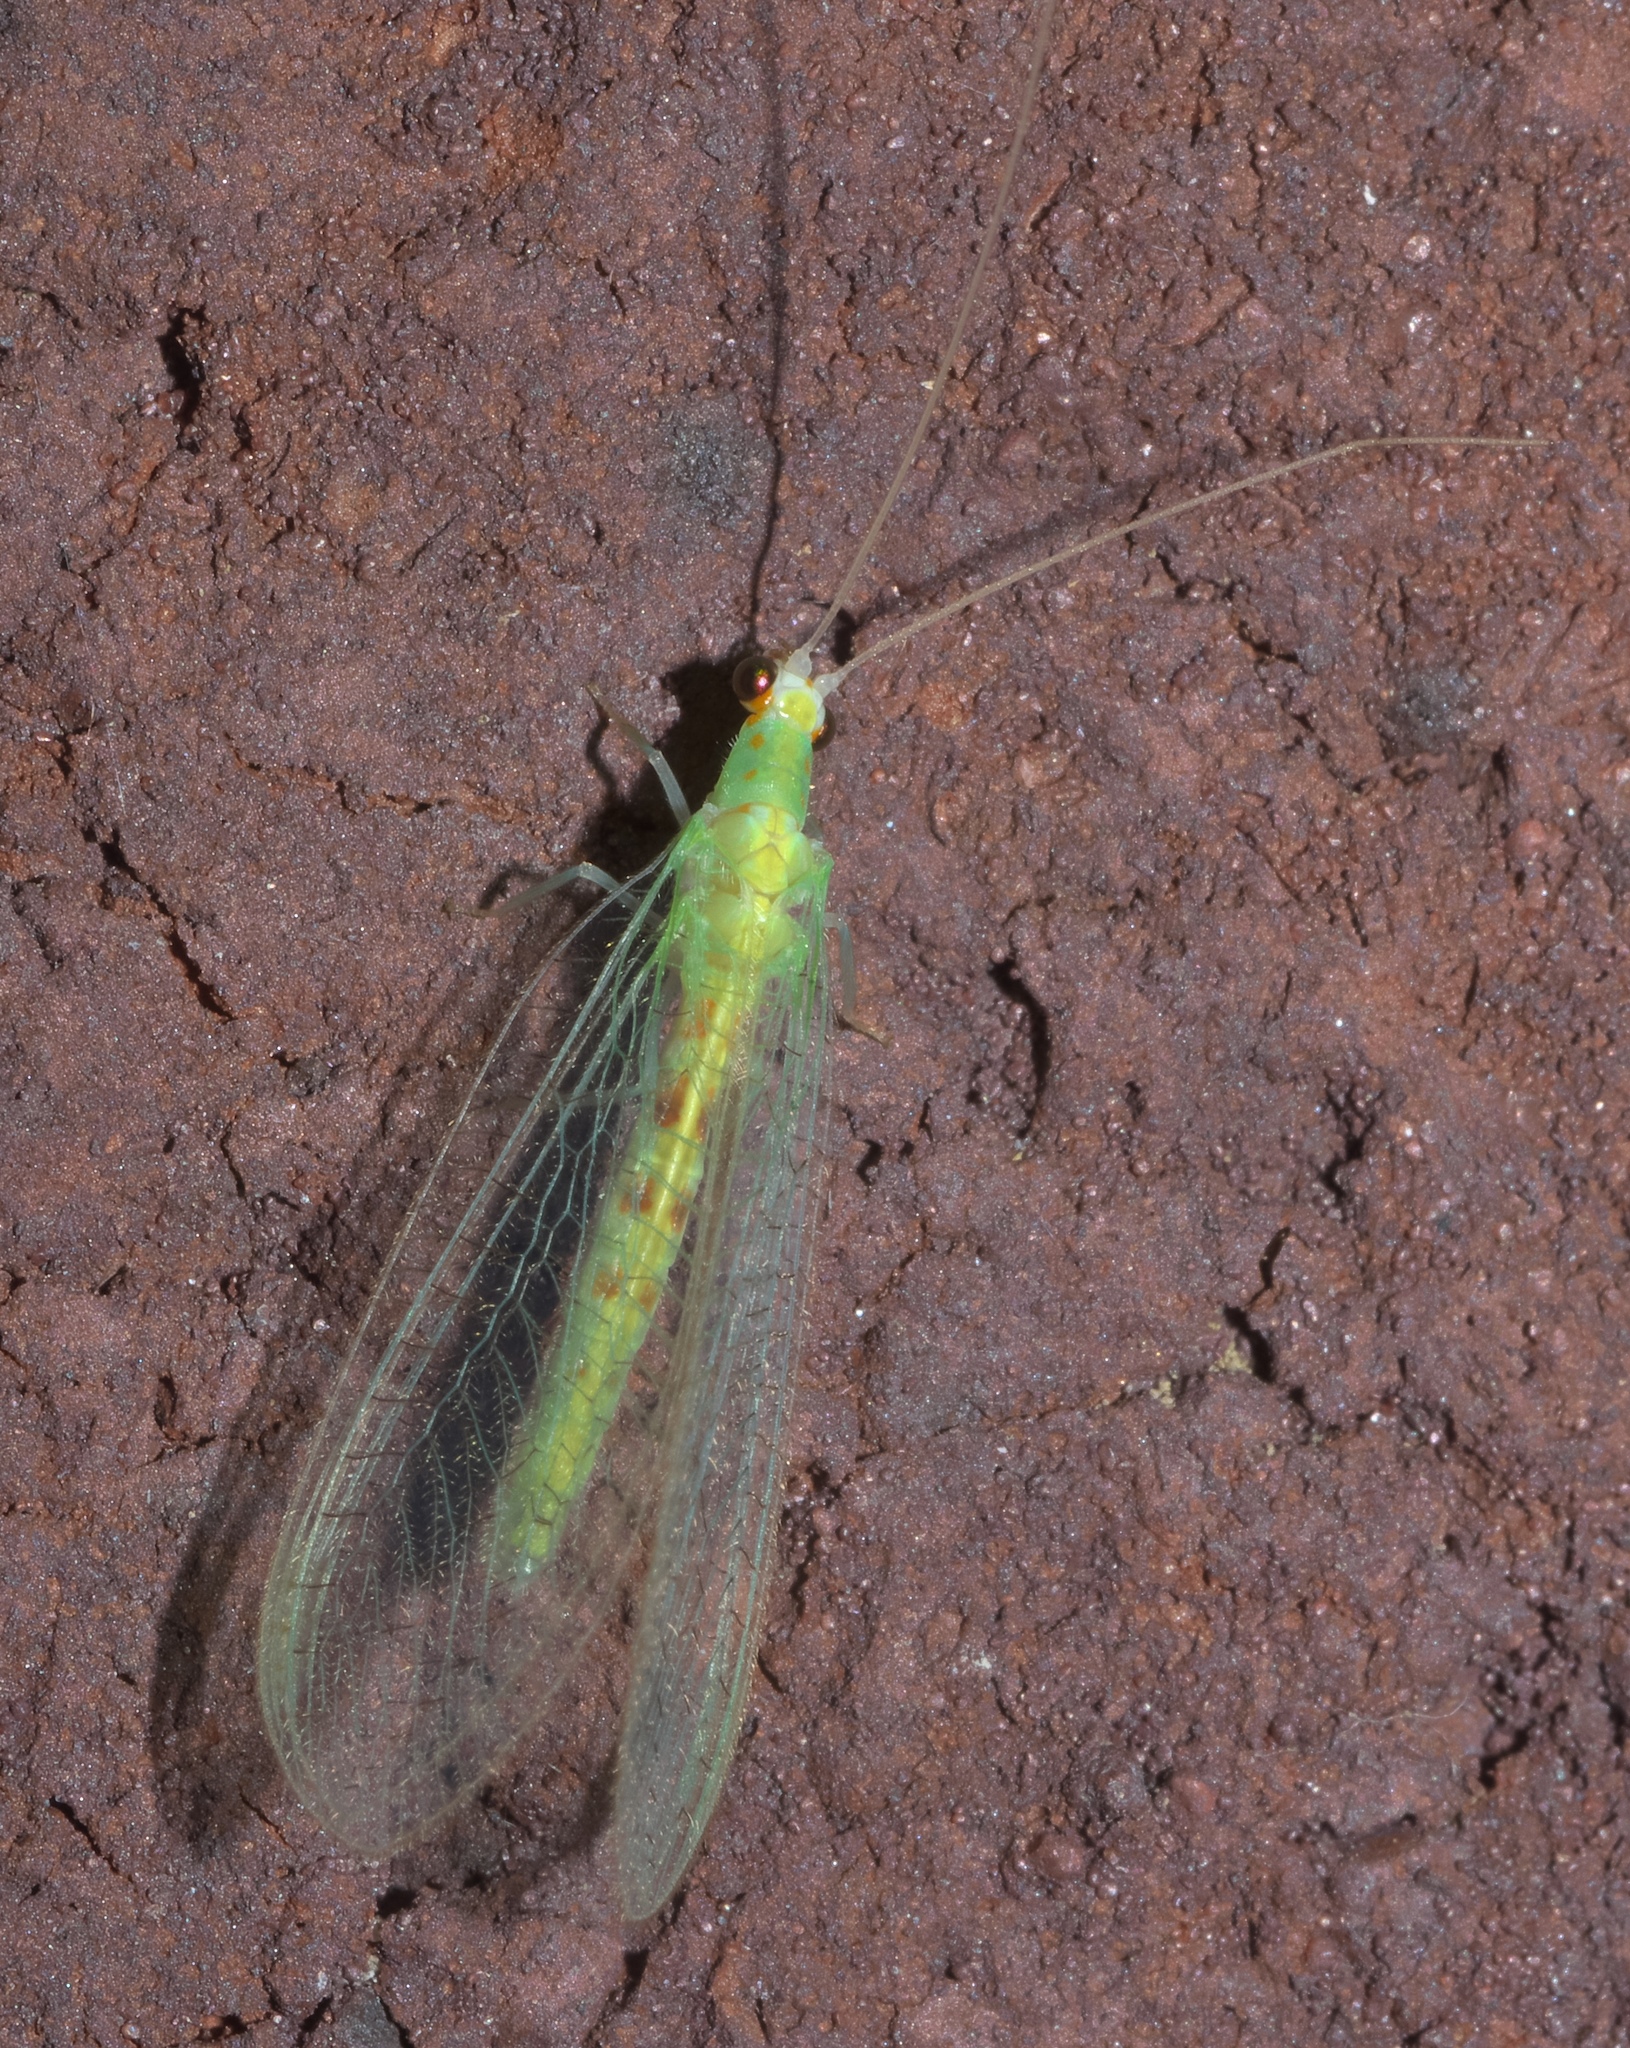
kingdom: Animalia
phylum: Arthropoda
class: Insecta
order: Neuroptera
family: Chrysopidae
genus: Chrysopa
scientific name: Chrysopa quadripunctata
